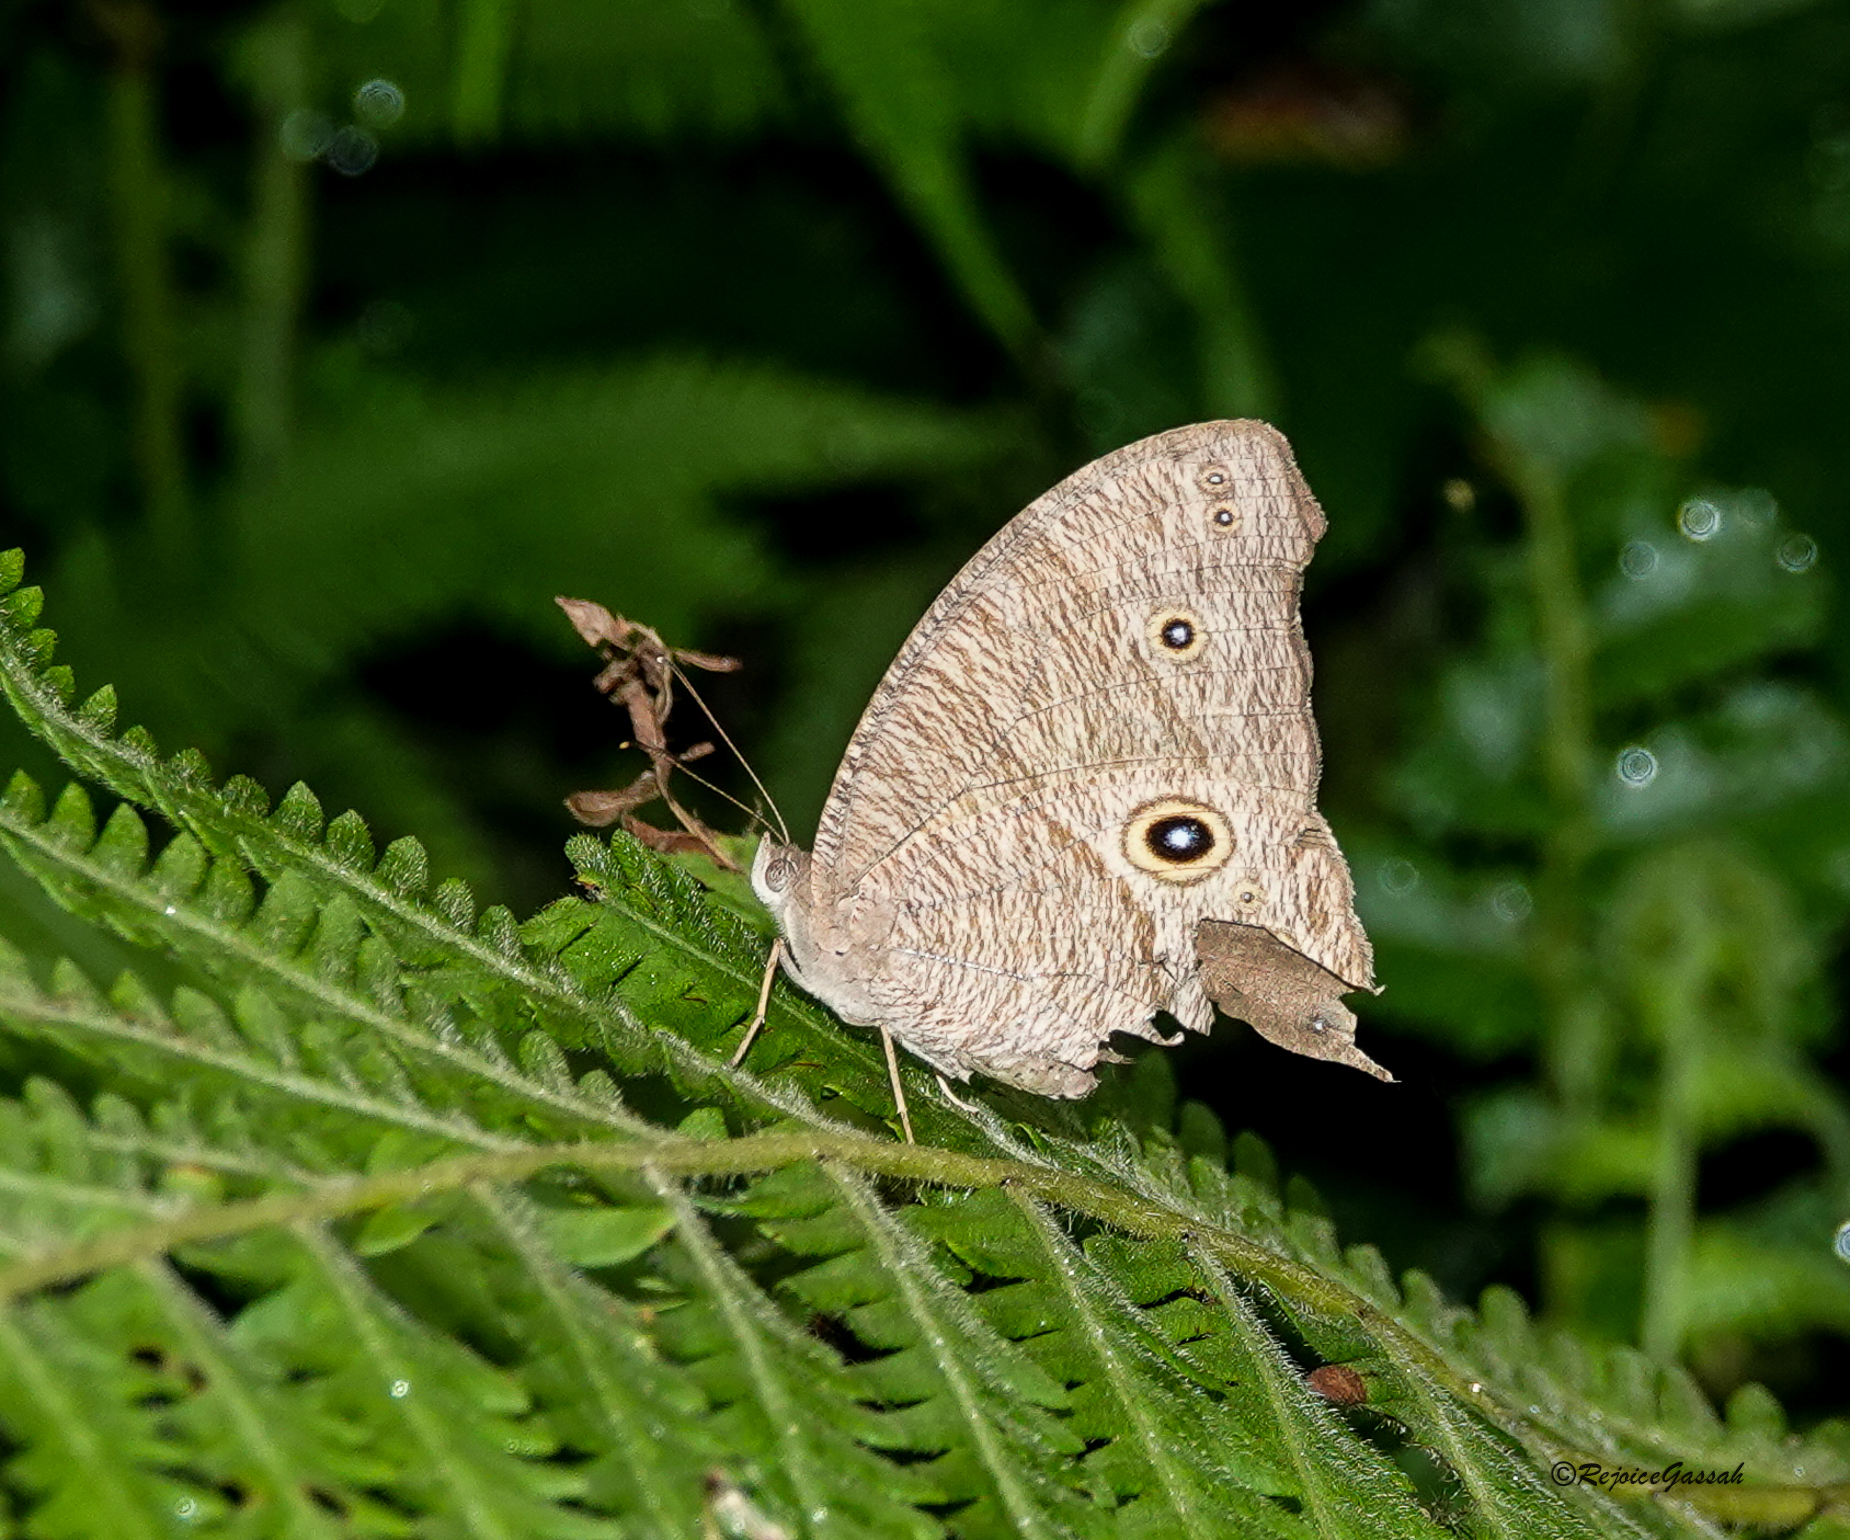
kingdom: Animalia
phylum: Arthropoda
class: Insecta
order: Lepidoptera
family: Nymphalidae
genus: Melanitis
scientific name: Melanitis leda
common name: Twilight brown
